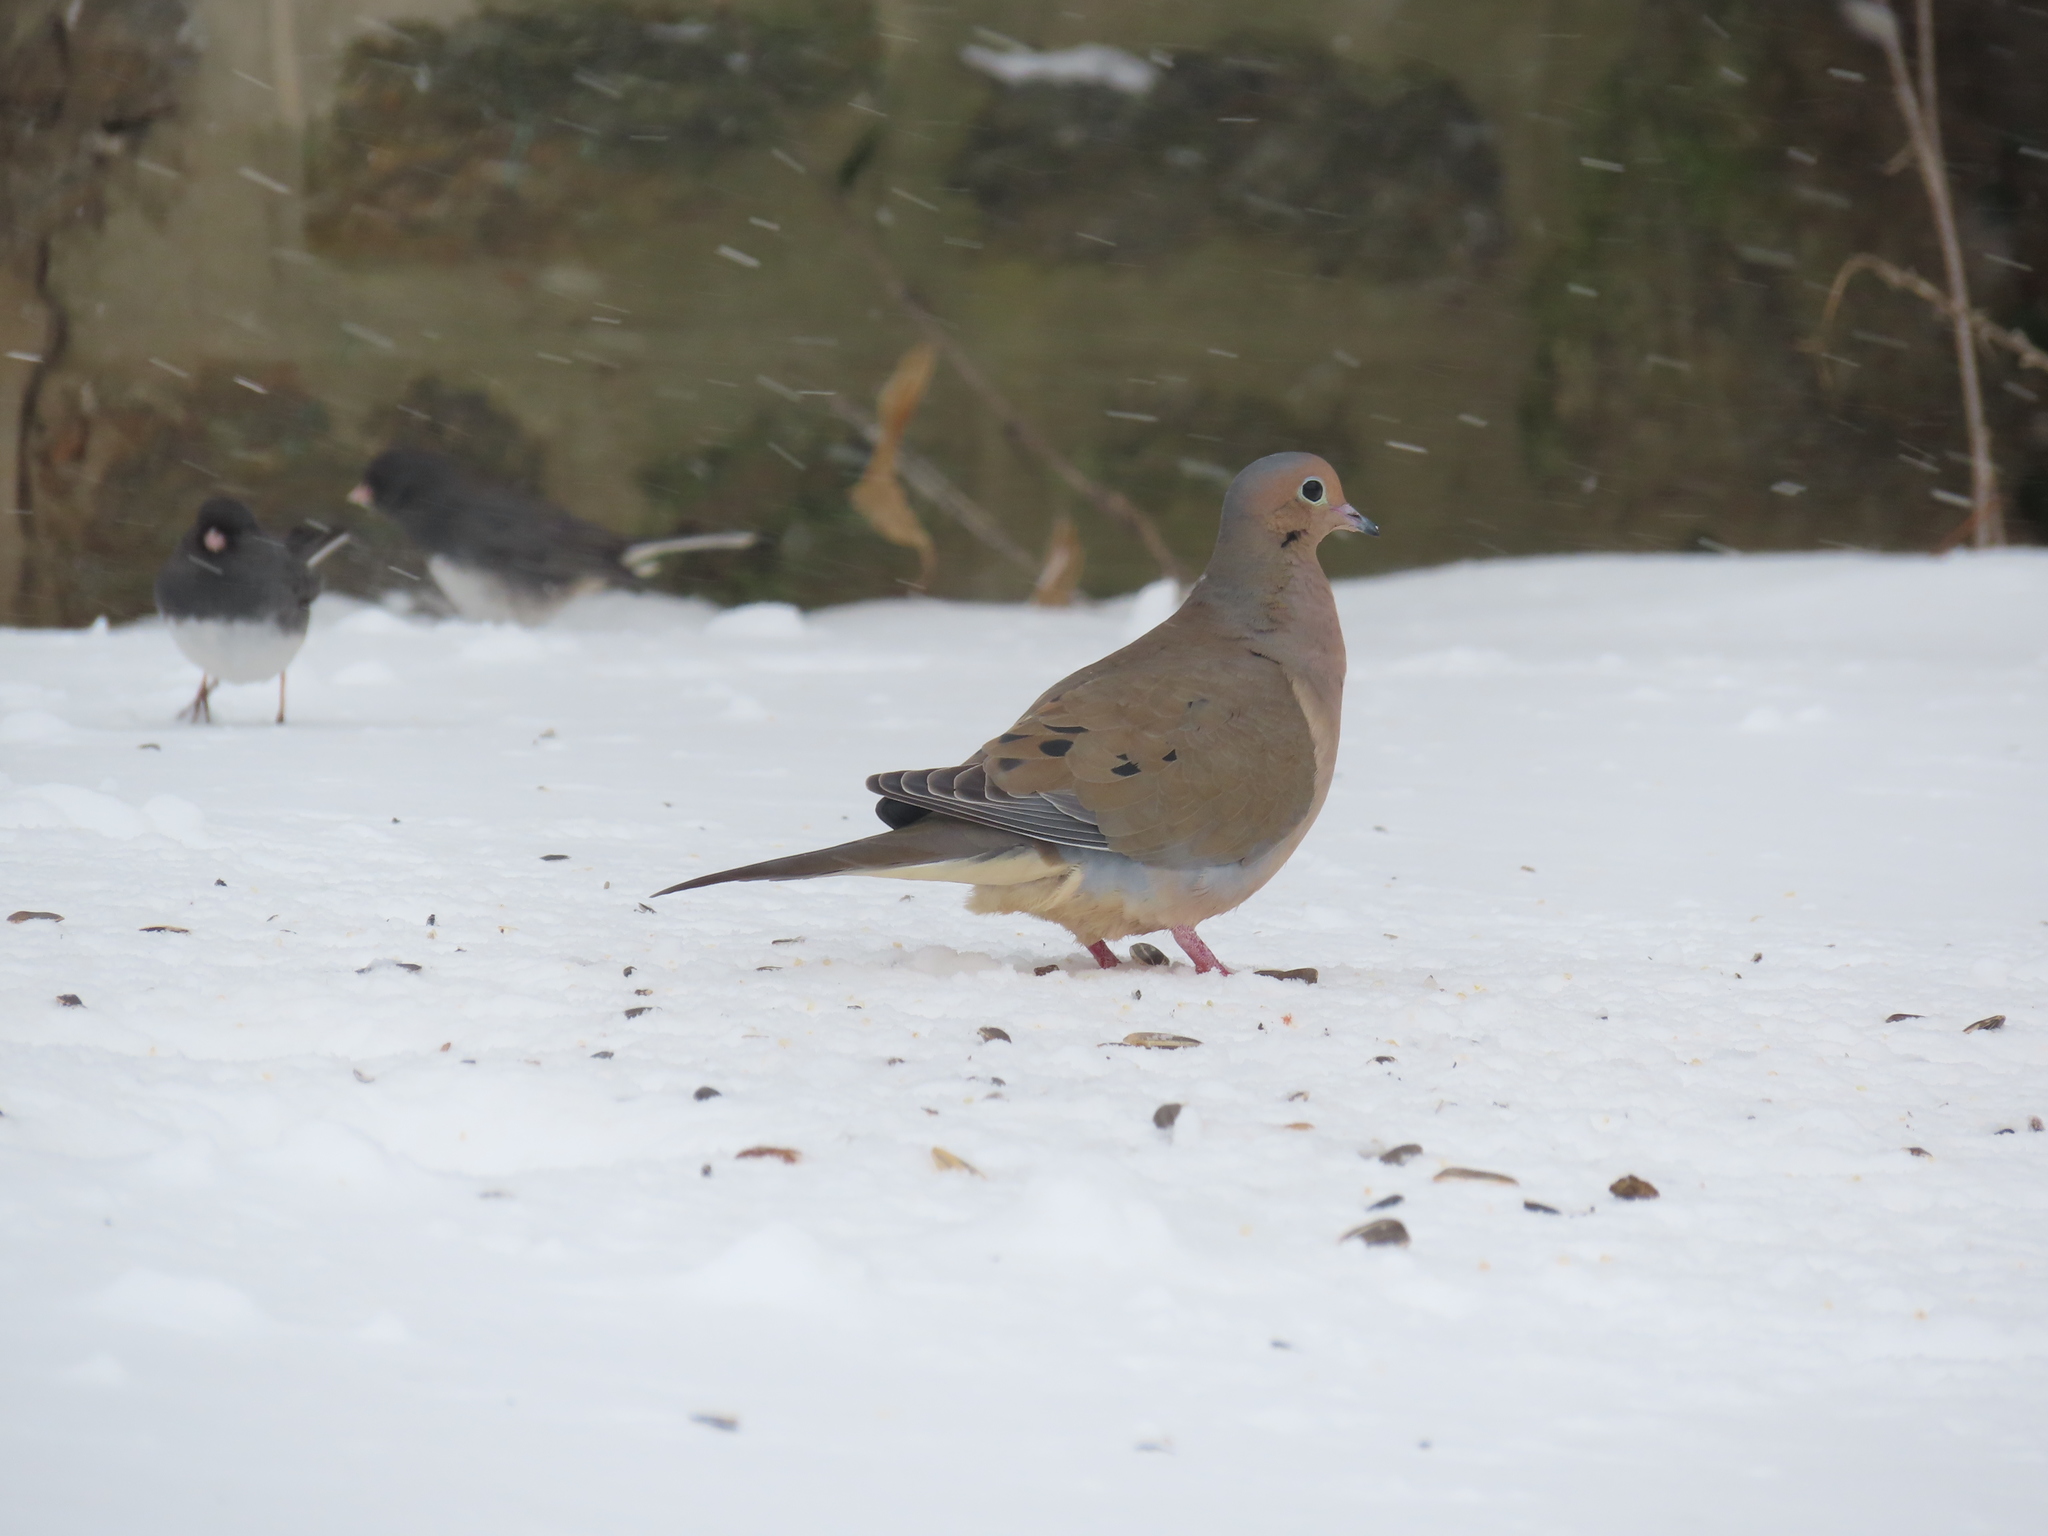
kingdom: Animalia
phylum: Chordata
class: Aves
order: Passeriformes
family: Passerellidae
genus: Junco
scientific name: Junco hyemalis
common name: Dark-eyed junco
